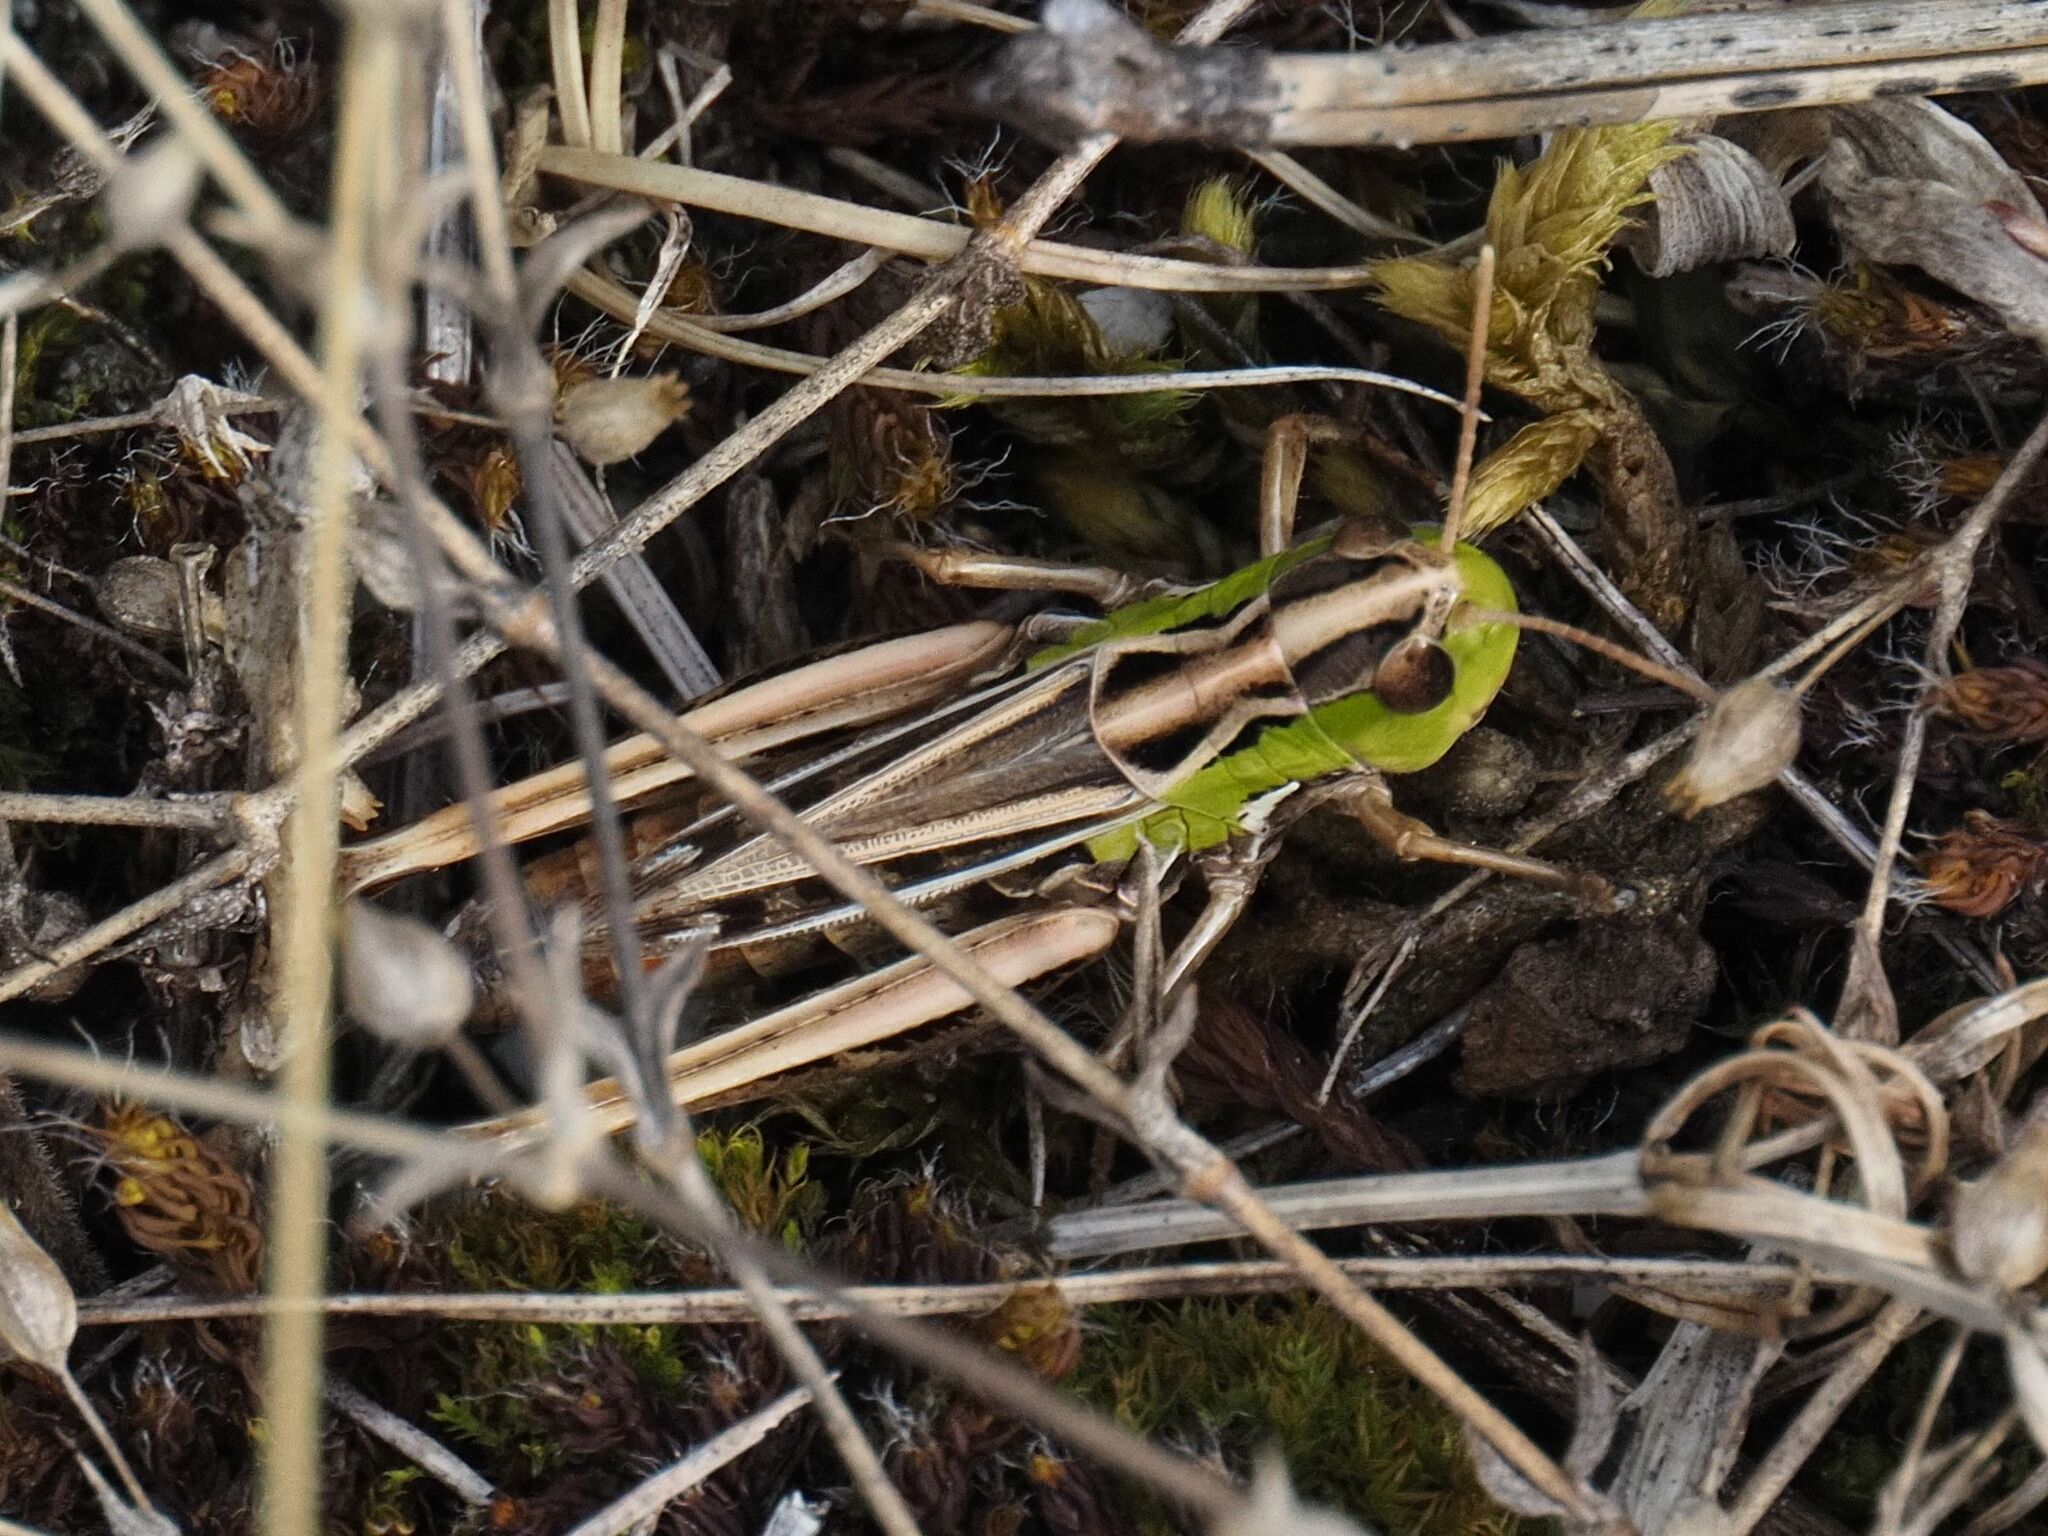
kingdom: Animalia
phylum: Arthropoda
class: Insecta
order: Orthoptera
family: Acrididae
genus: Stenobothrus
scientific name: Stenobothrus nigromaculatus
